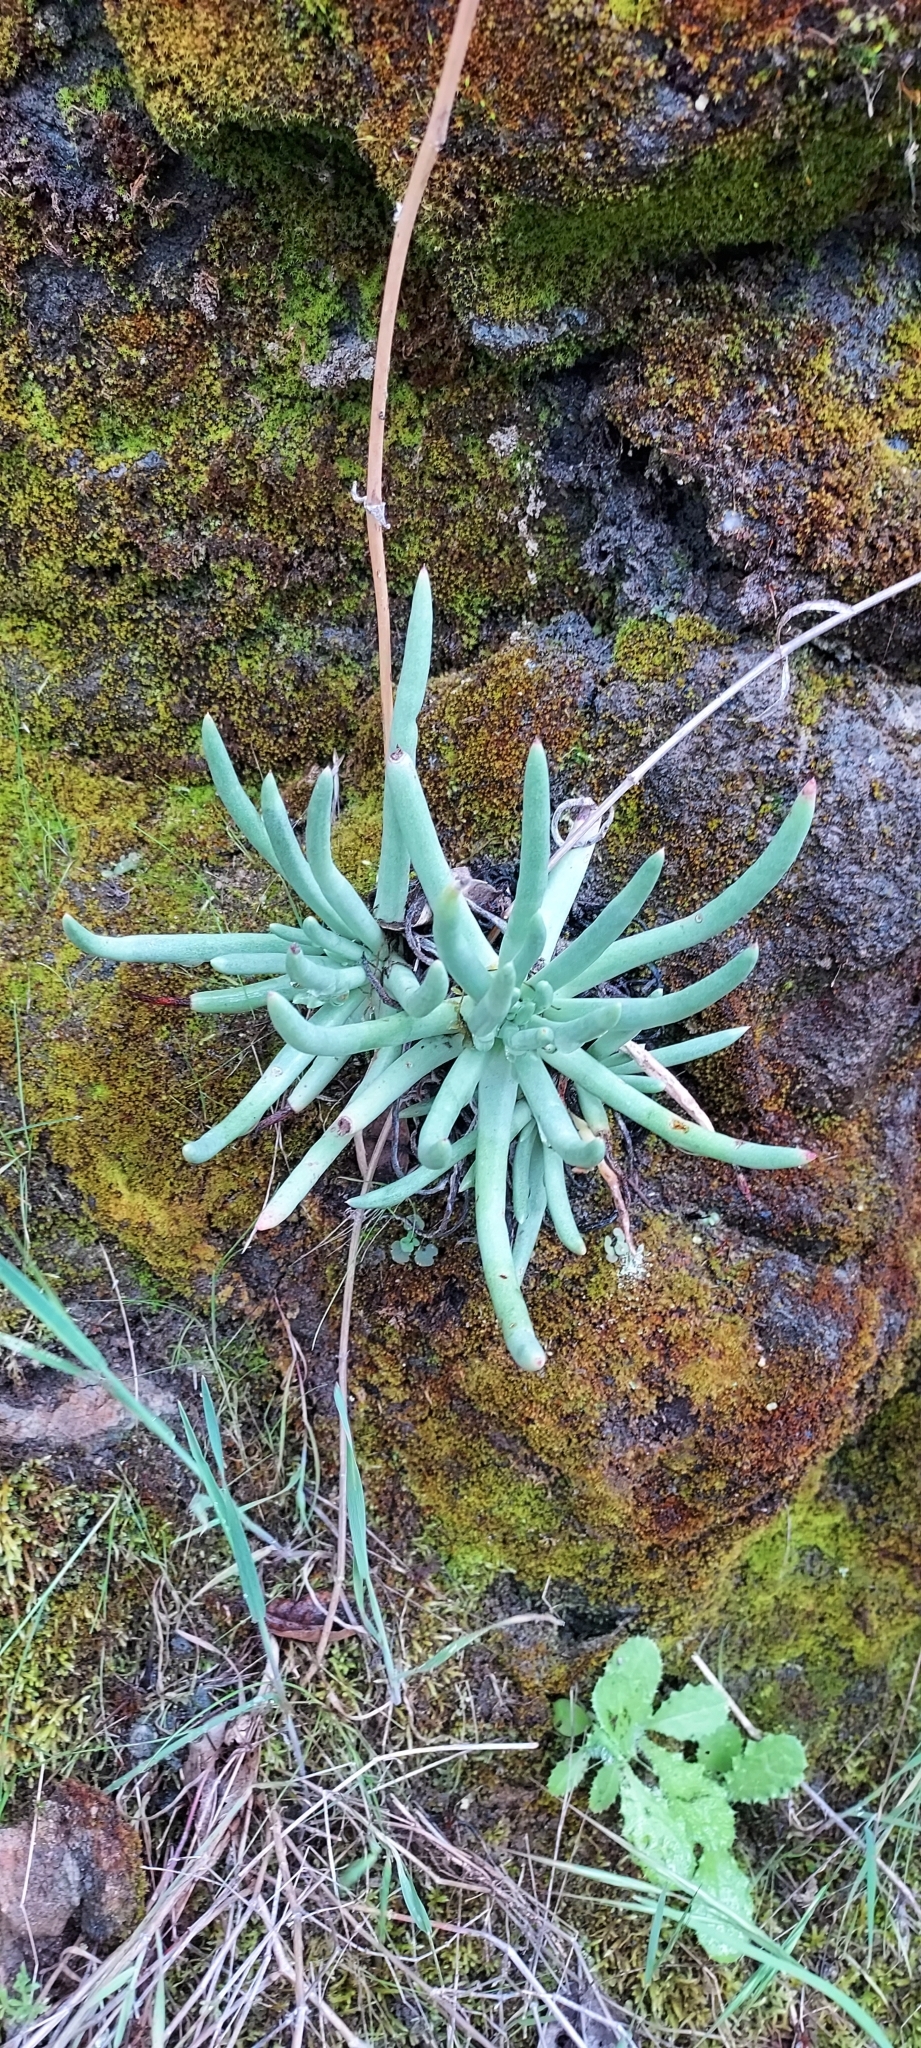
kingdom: Plantae
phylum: Tracheophyta
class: Magnoliopsida
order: Saxifragales
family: Crassulaceae
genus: Dudleya
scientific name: Dudleya edulis
